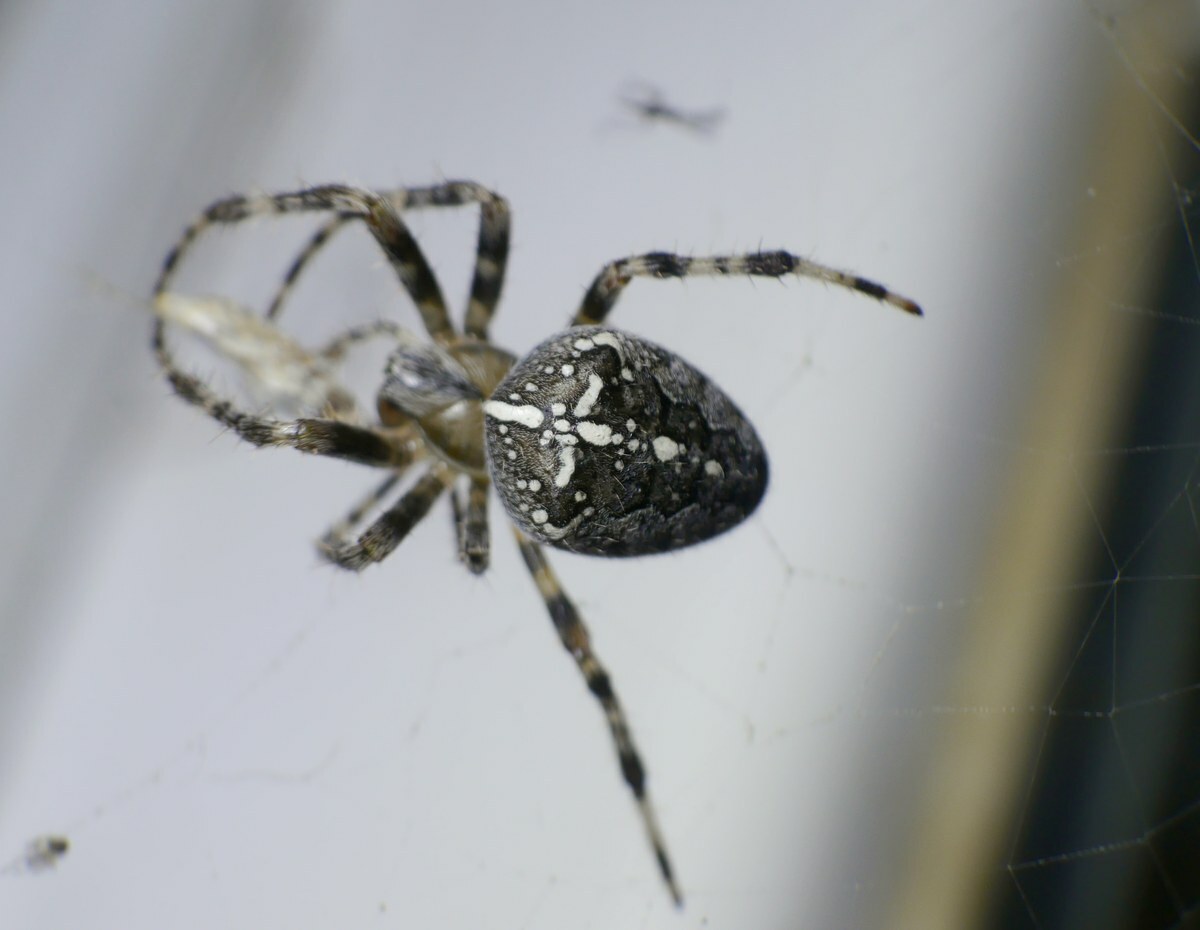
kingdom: Animalia
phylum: Arthropoda
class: Arachnida
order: Araneae
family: Araneidae
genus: Araneus
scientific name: Araneus diadematus
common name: Cross orbweaver
